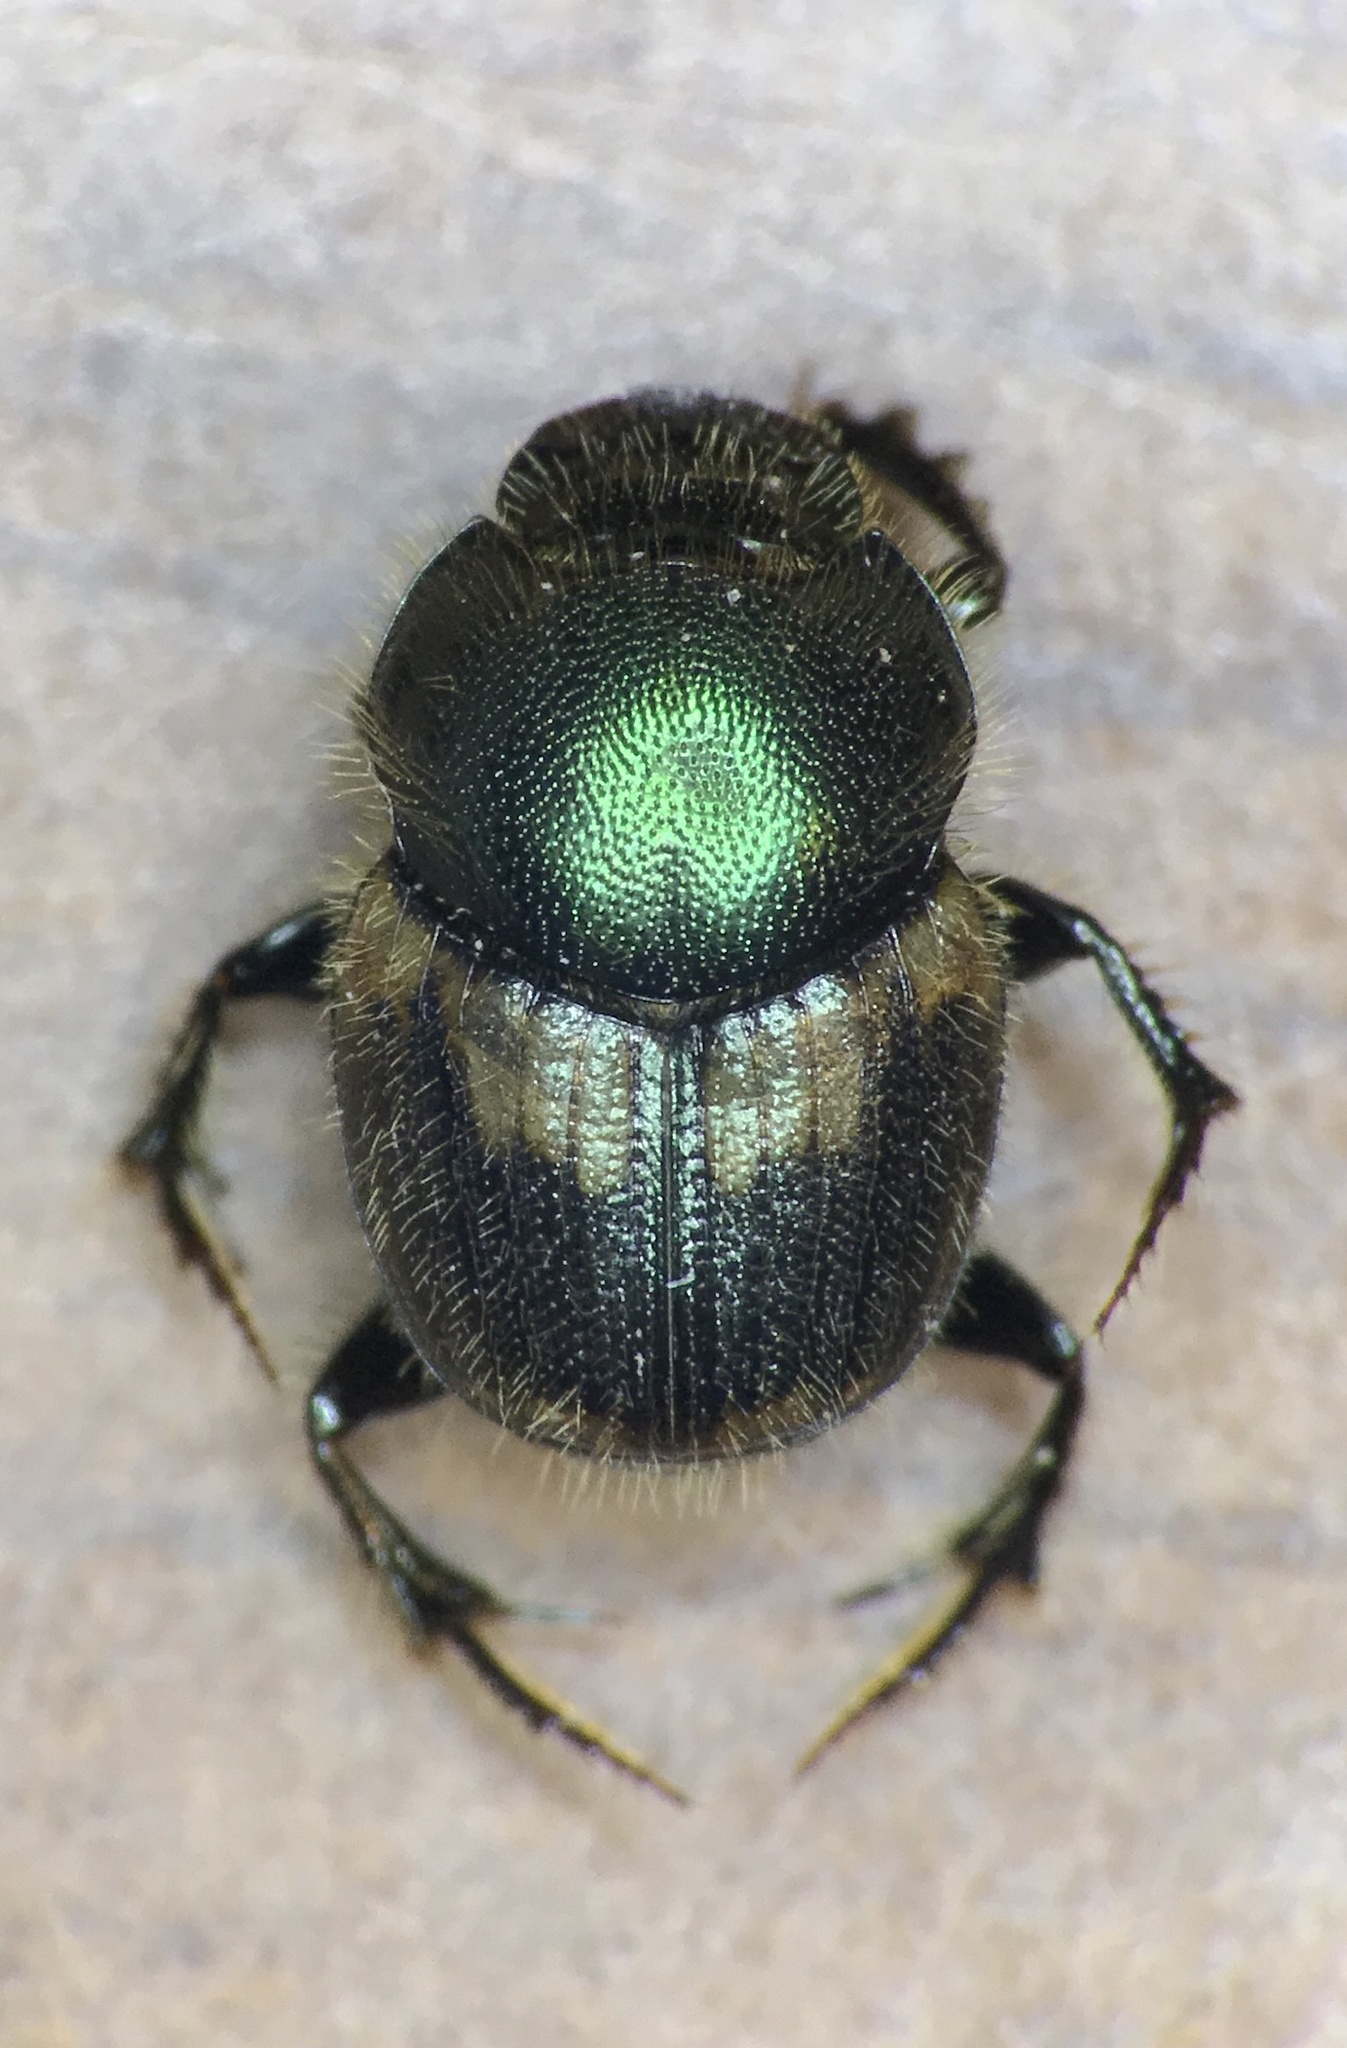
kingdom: Animalia
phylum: Arthropoda
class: Insecta
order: Coleoptera
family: Scarabaeidae
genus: Onthophagus
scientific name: Onthophagus concinnus
